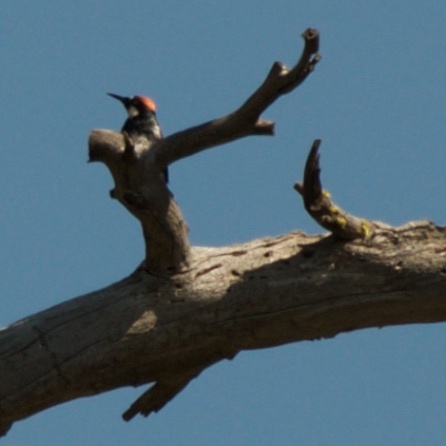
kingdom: Animalia
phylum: Chordata
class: Aves
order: Piciformes
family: Picidae
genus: Melanerpes
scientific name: Melanerpes formicivorus
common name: Acorn woodpecker
